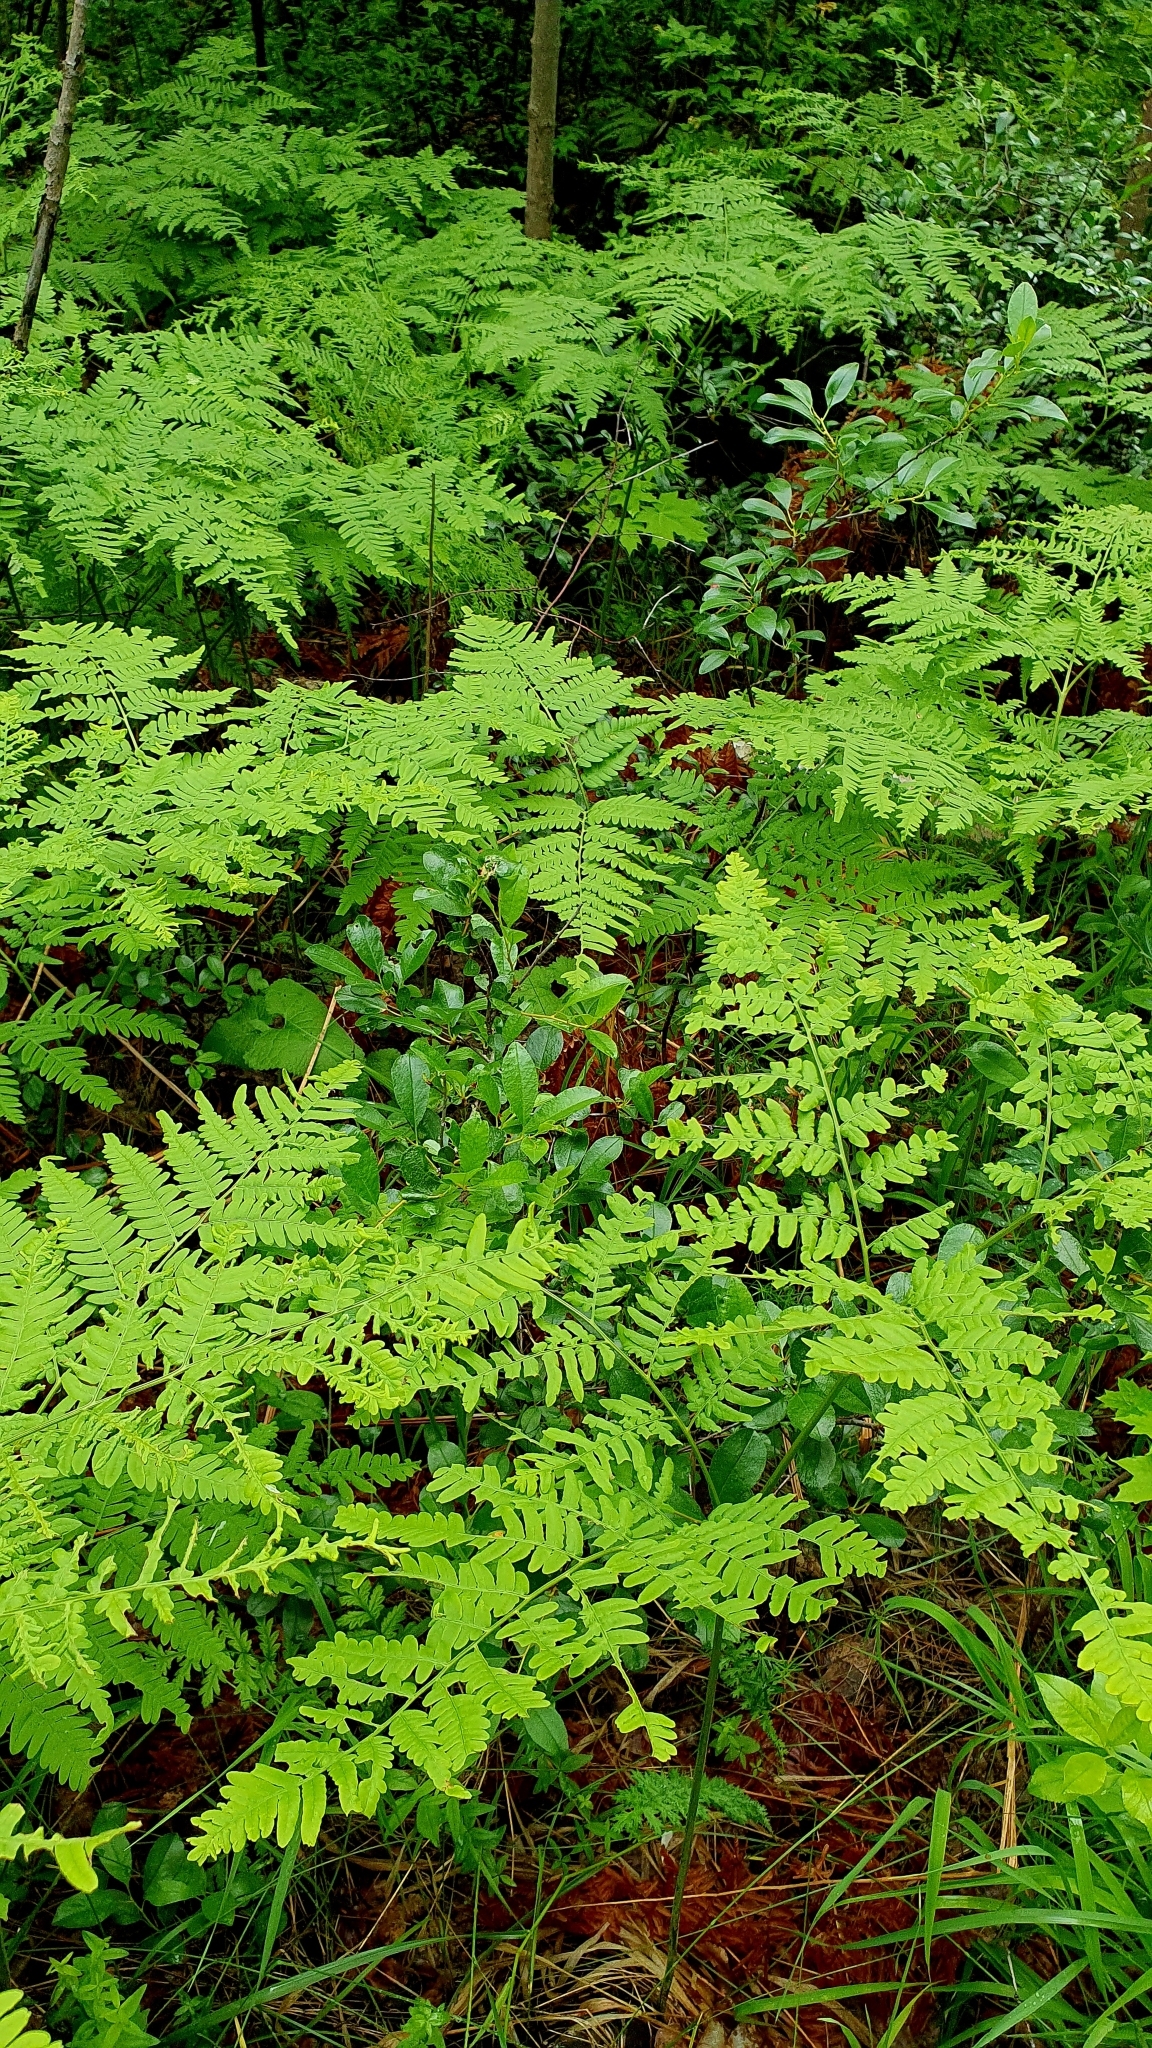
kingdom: Plantae
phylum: Tracheophyta
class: Polypodiopsida
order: Polypodiales
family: Dennstaedtiaceae
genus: Pteridium
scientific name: Pteridium aquilinum
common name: Bracken
